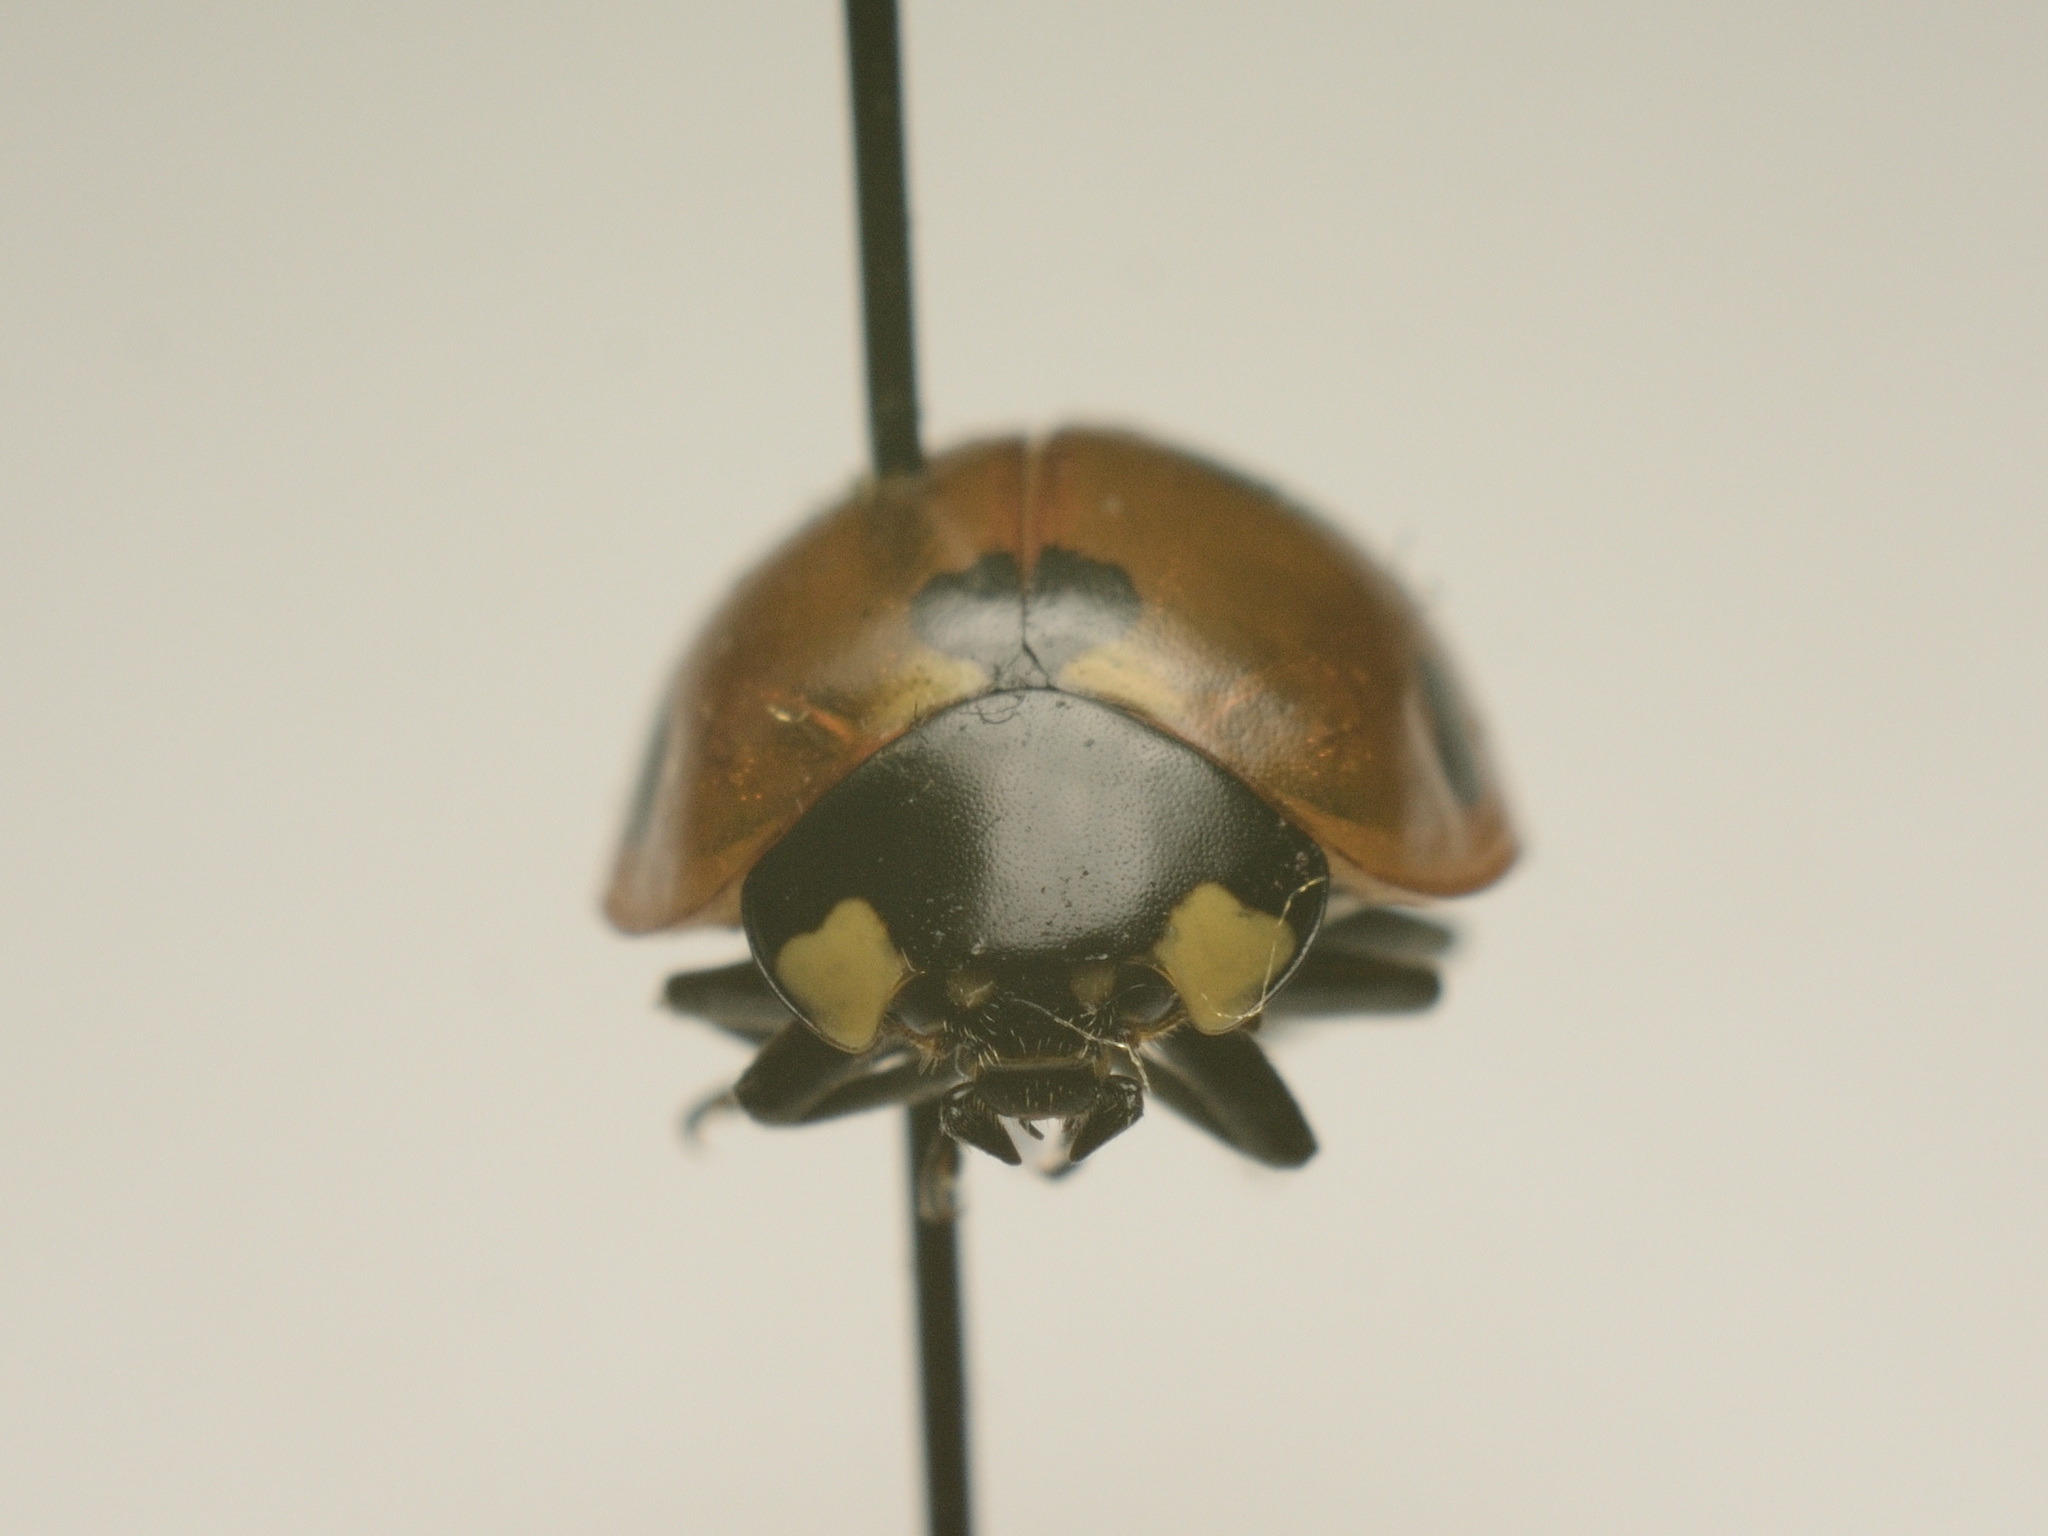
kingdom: Animalia
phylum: Arthropoda
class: Insecta
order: Coleoptera
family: Coccinellidae
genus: Coccinella
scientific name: Coccinella septempunctata
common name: Sevenspotted lady beetle
